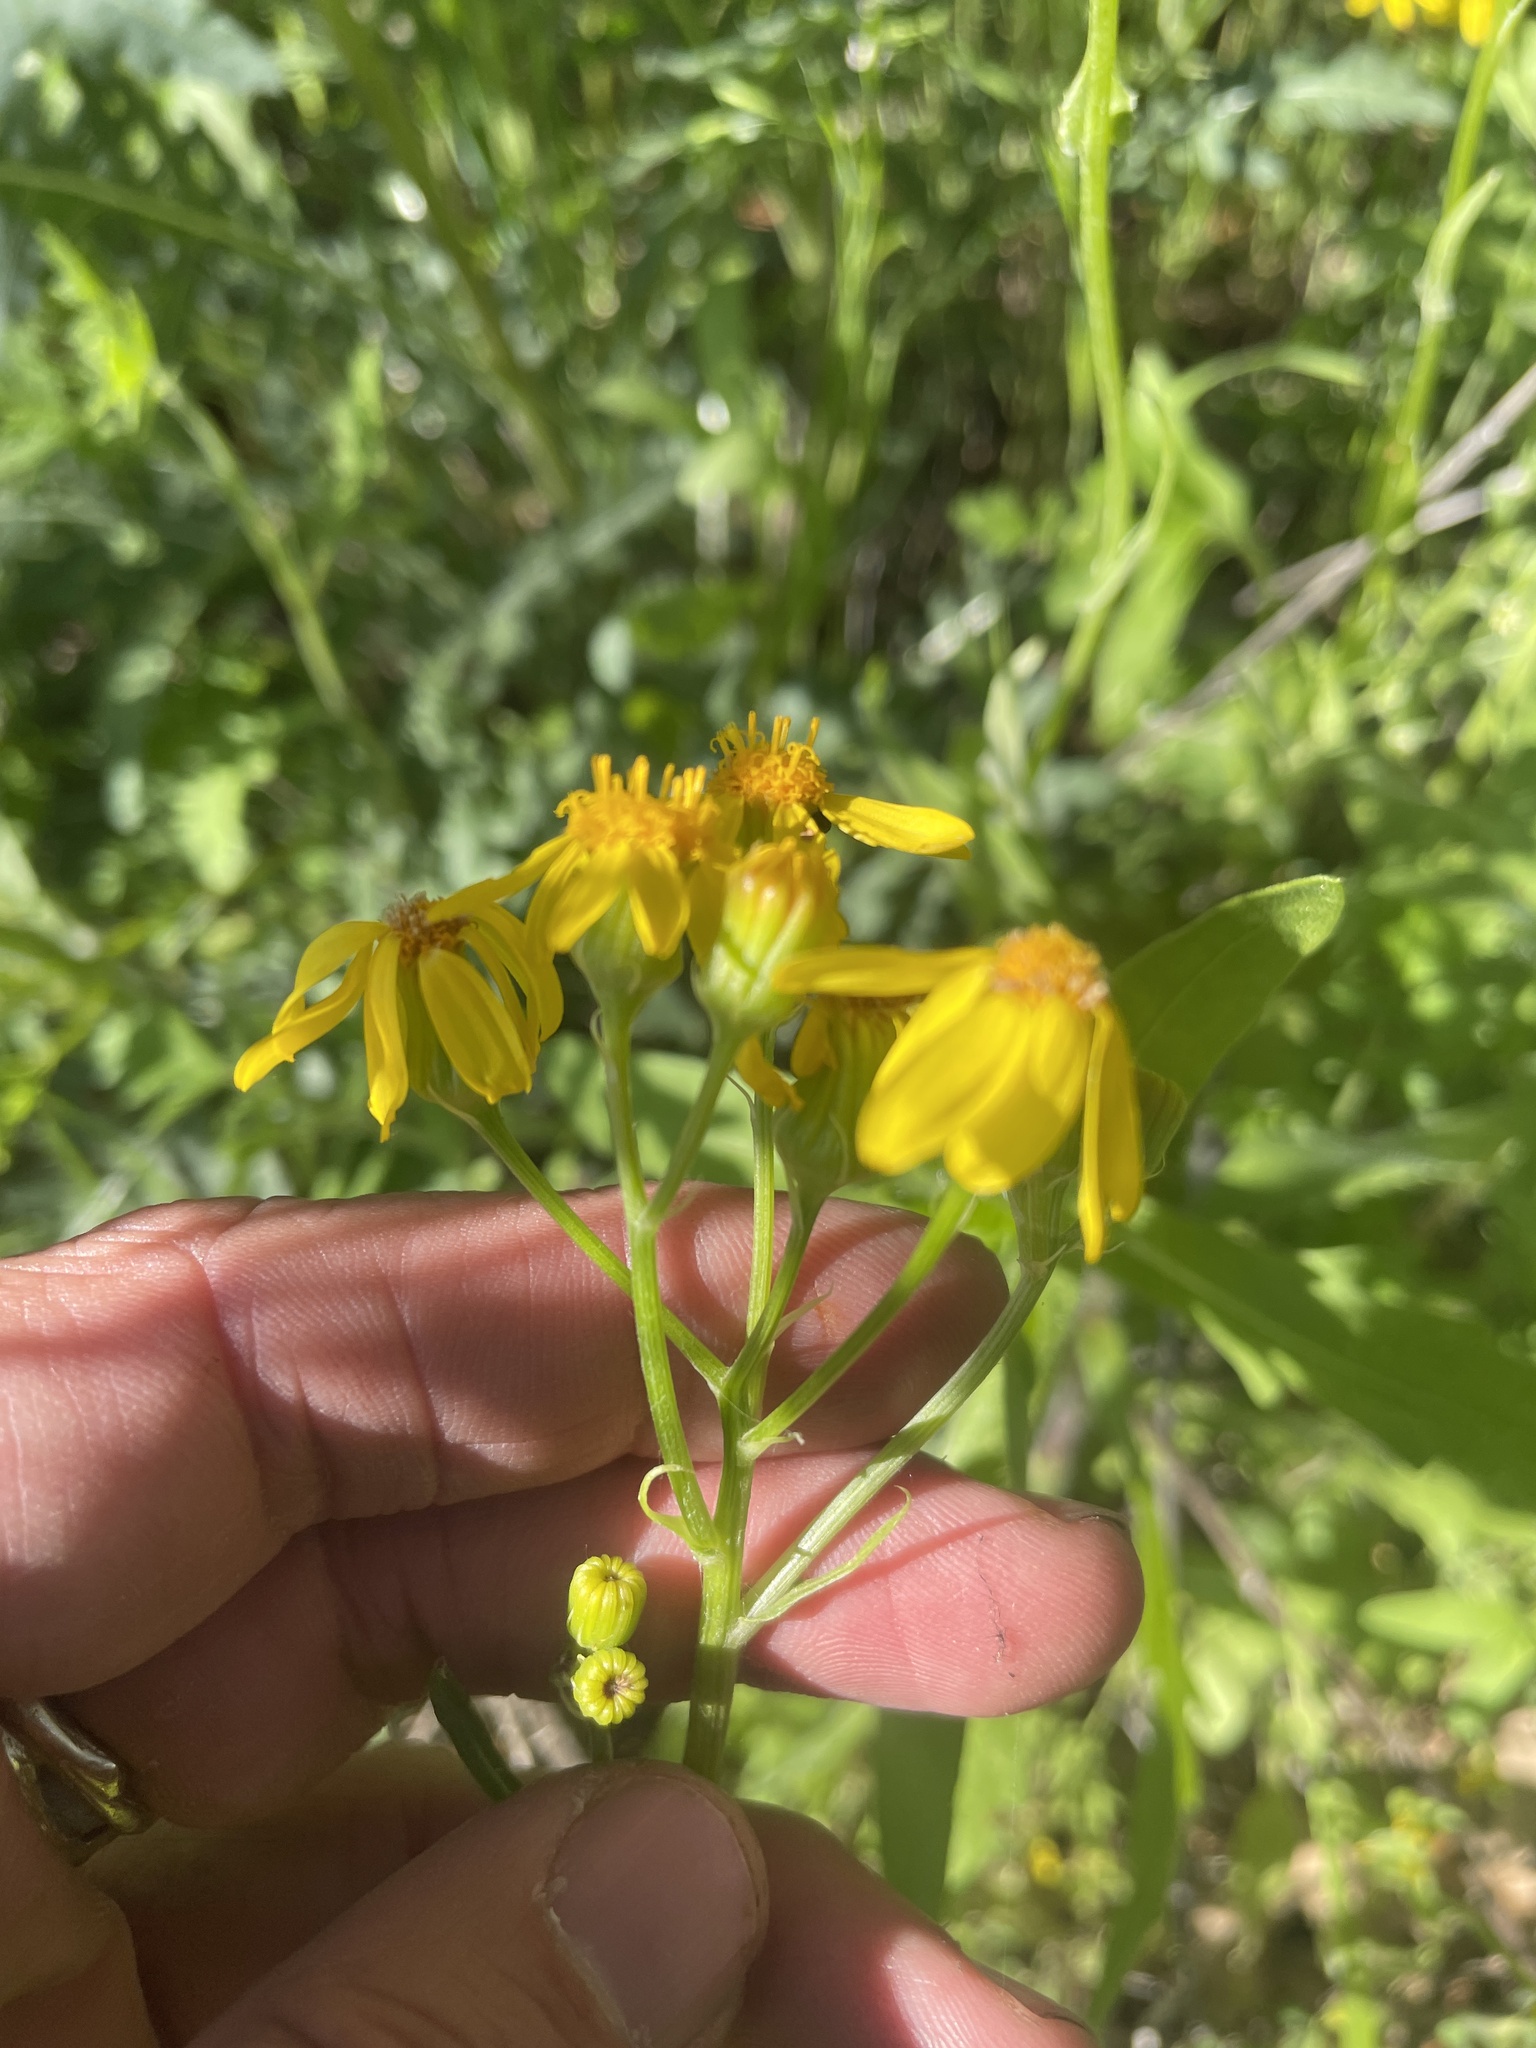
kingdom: Plantae
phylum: Tracheophyta
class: Magnoliopsida
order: Asterales
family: Asteraceae
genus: Senecio
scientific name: Senecio ampullaceus
